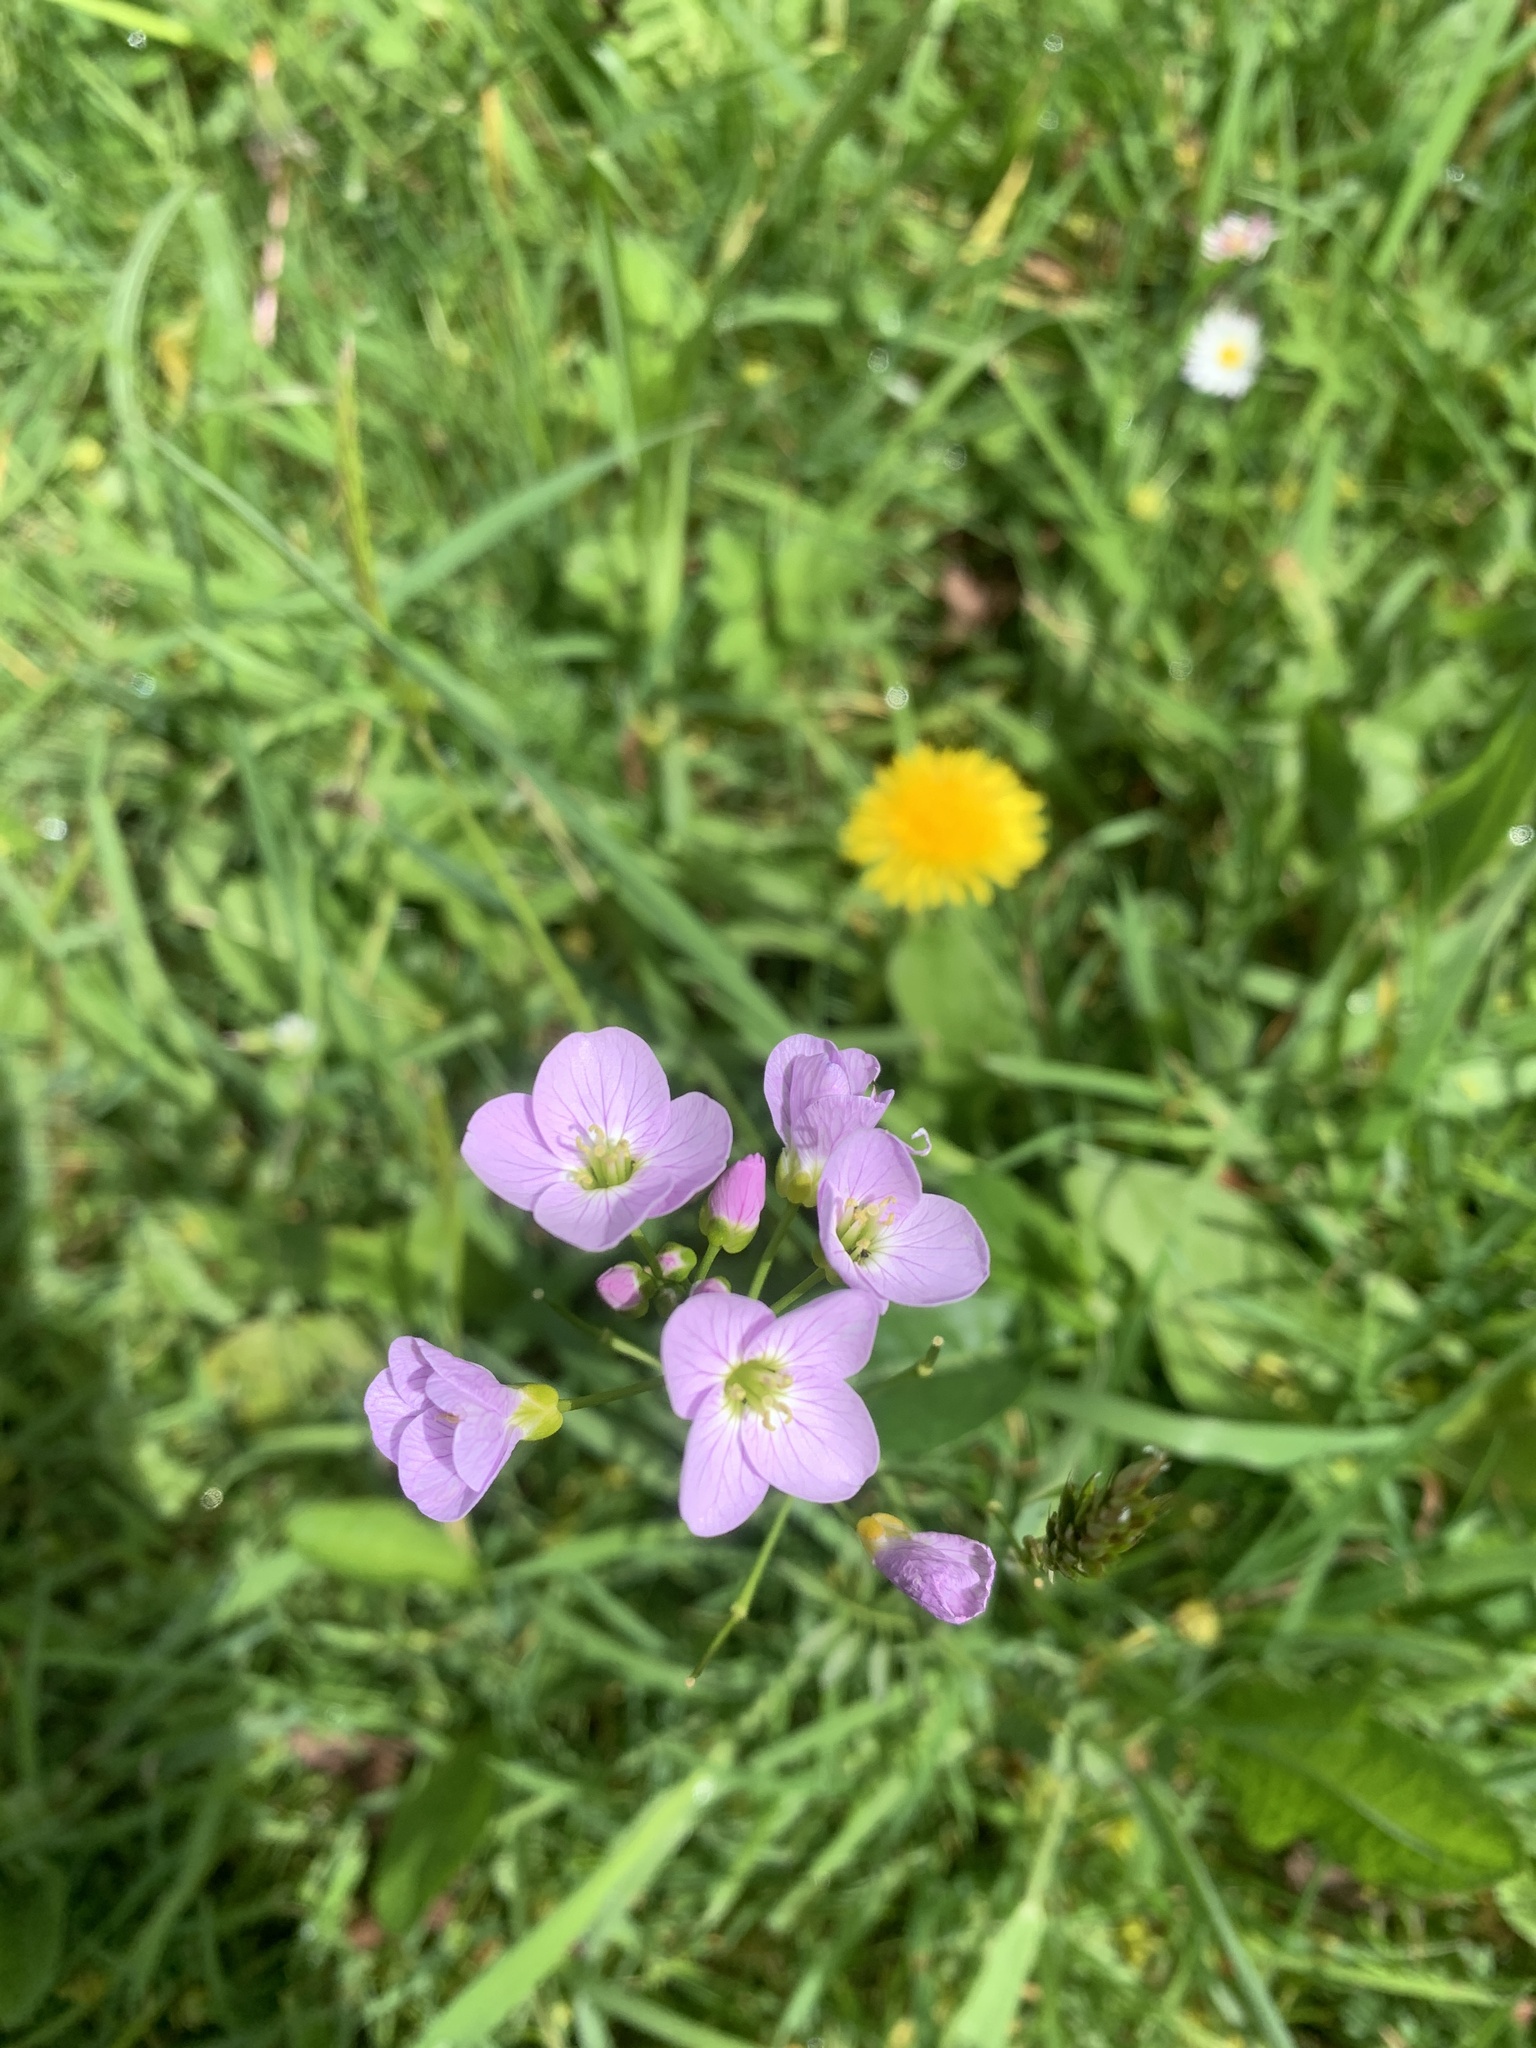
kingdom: Plantae
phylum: Tracheophyta
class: Magnoliopsida
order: Brassicales
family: Brassicaceae
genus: Cardamine
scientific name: Cardamine pratensis
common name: Cuckoo flower
